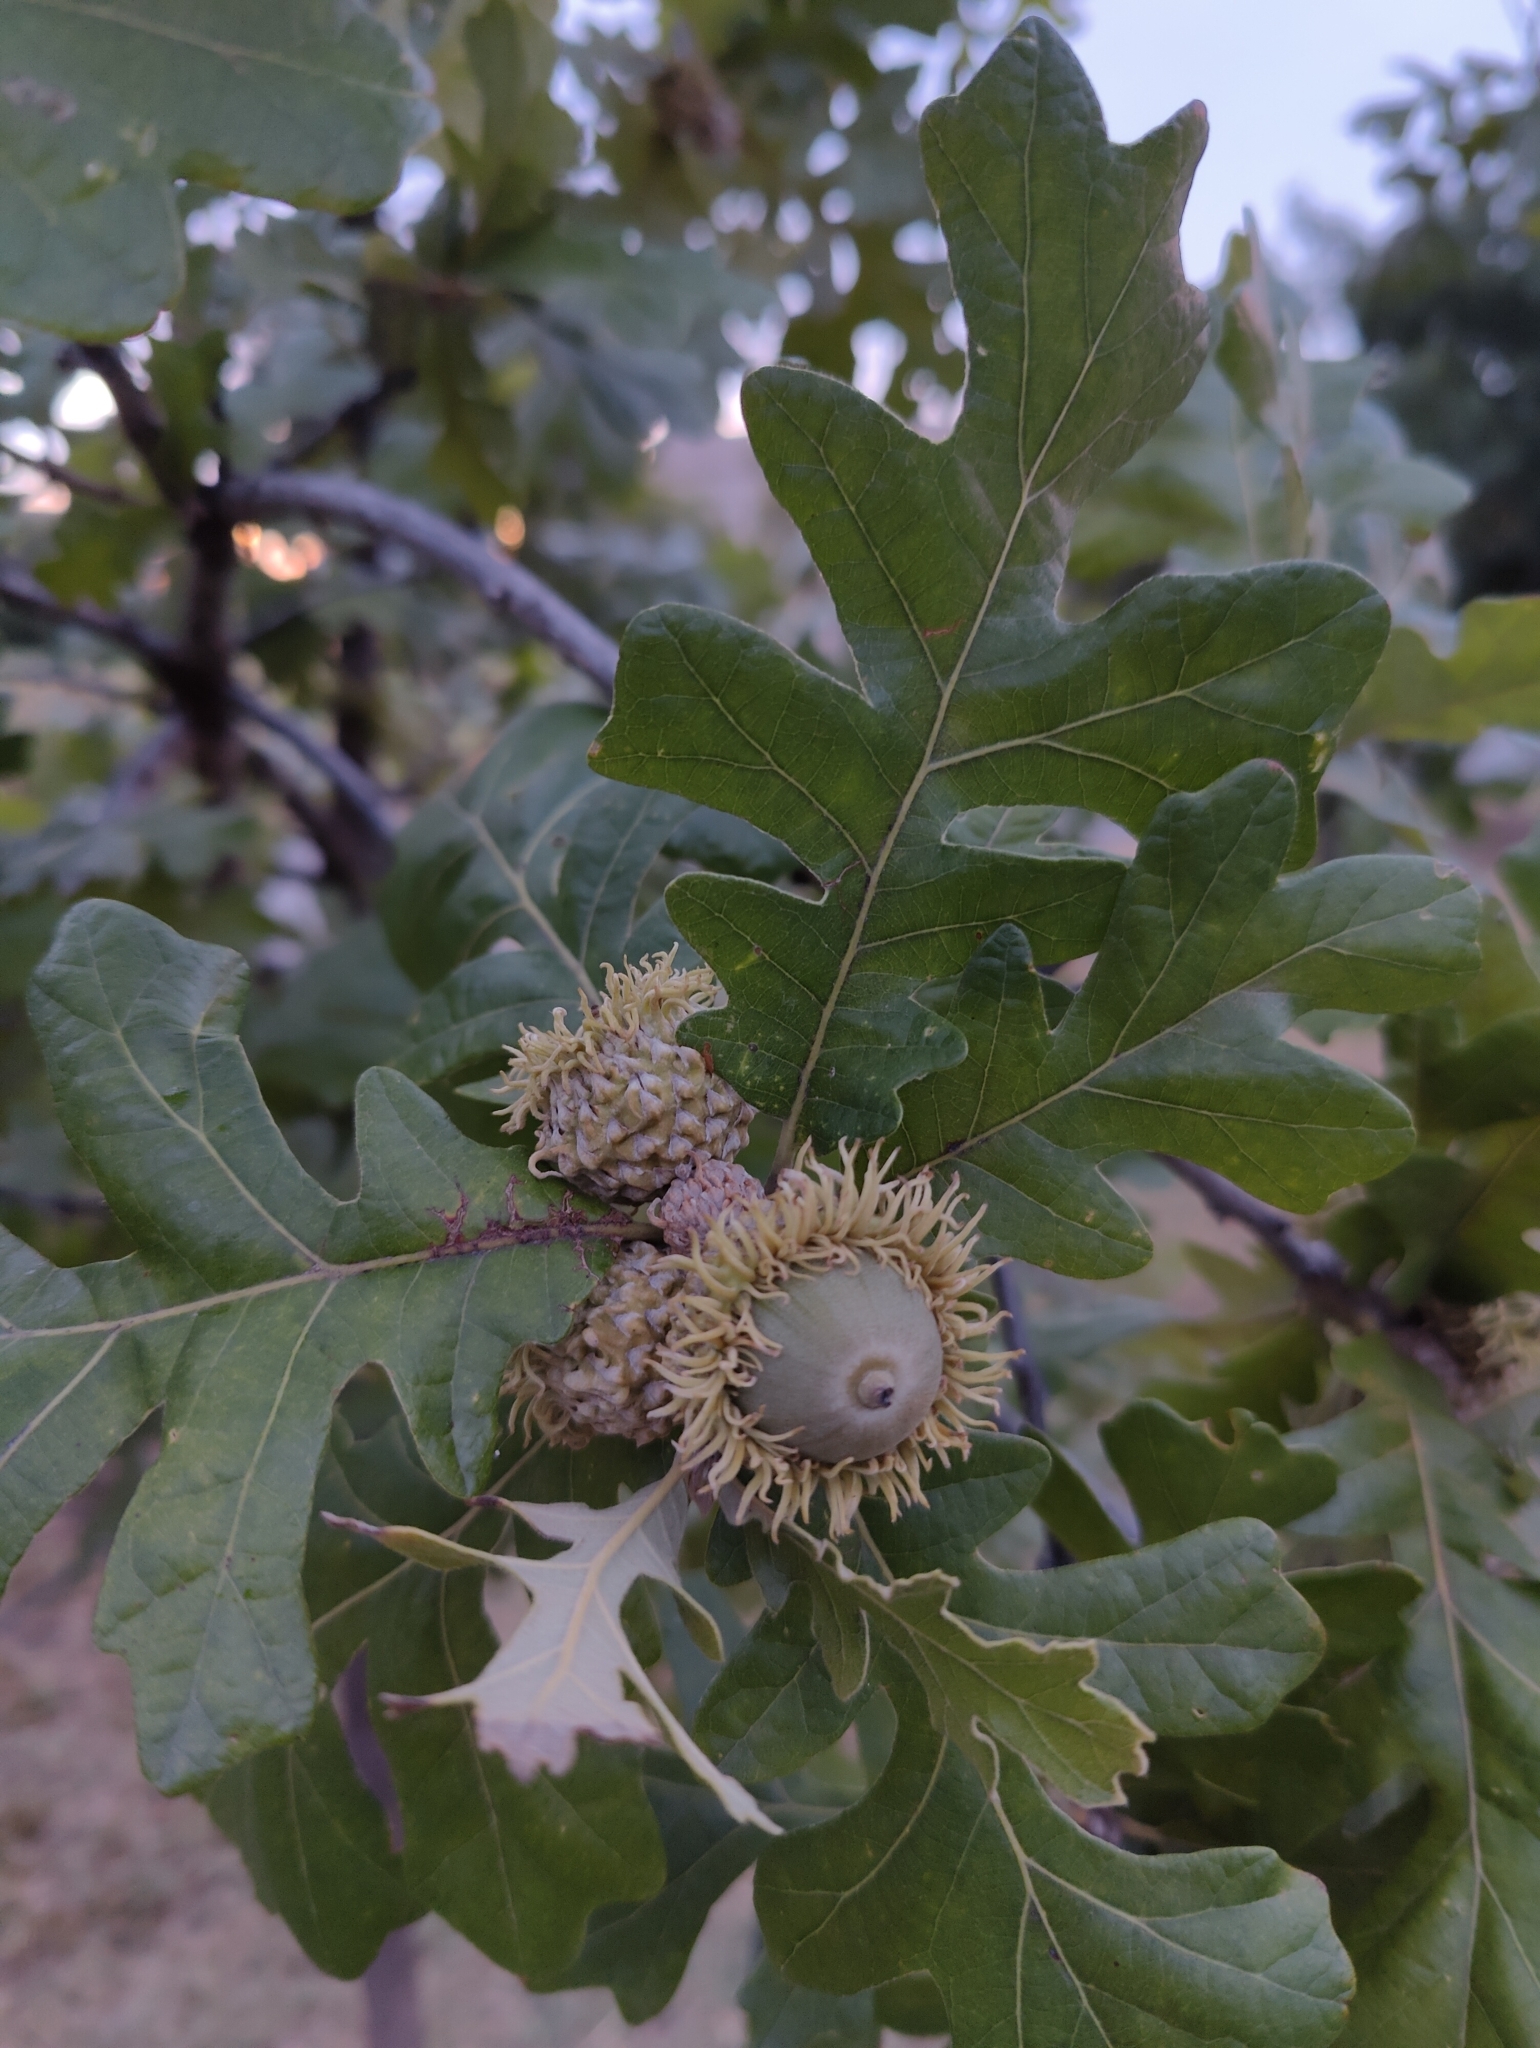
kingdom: Plantae
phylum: Tracheophyta
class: Magnoliopsida
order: Fagales
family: Fagaceae
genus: Quercus
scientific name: Quercus macrocarpa
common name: Bur oak
